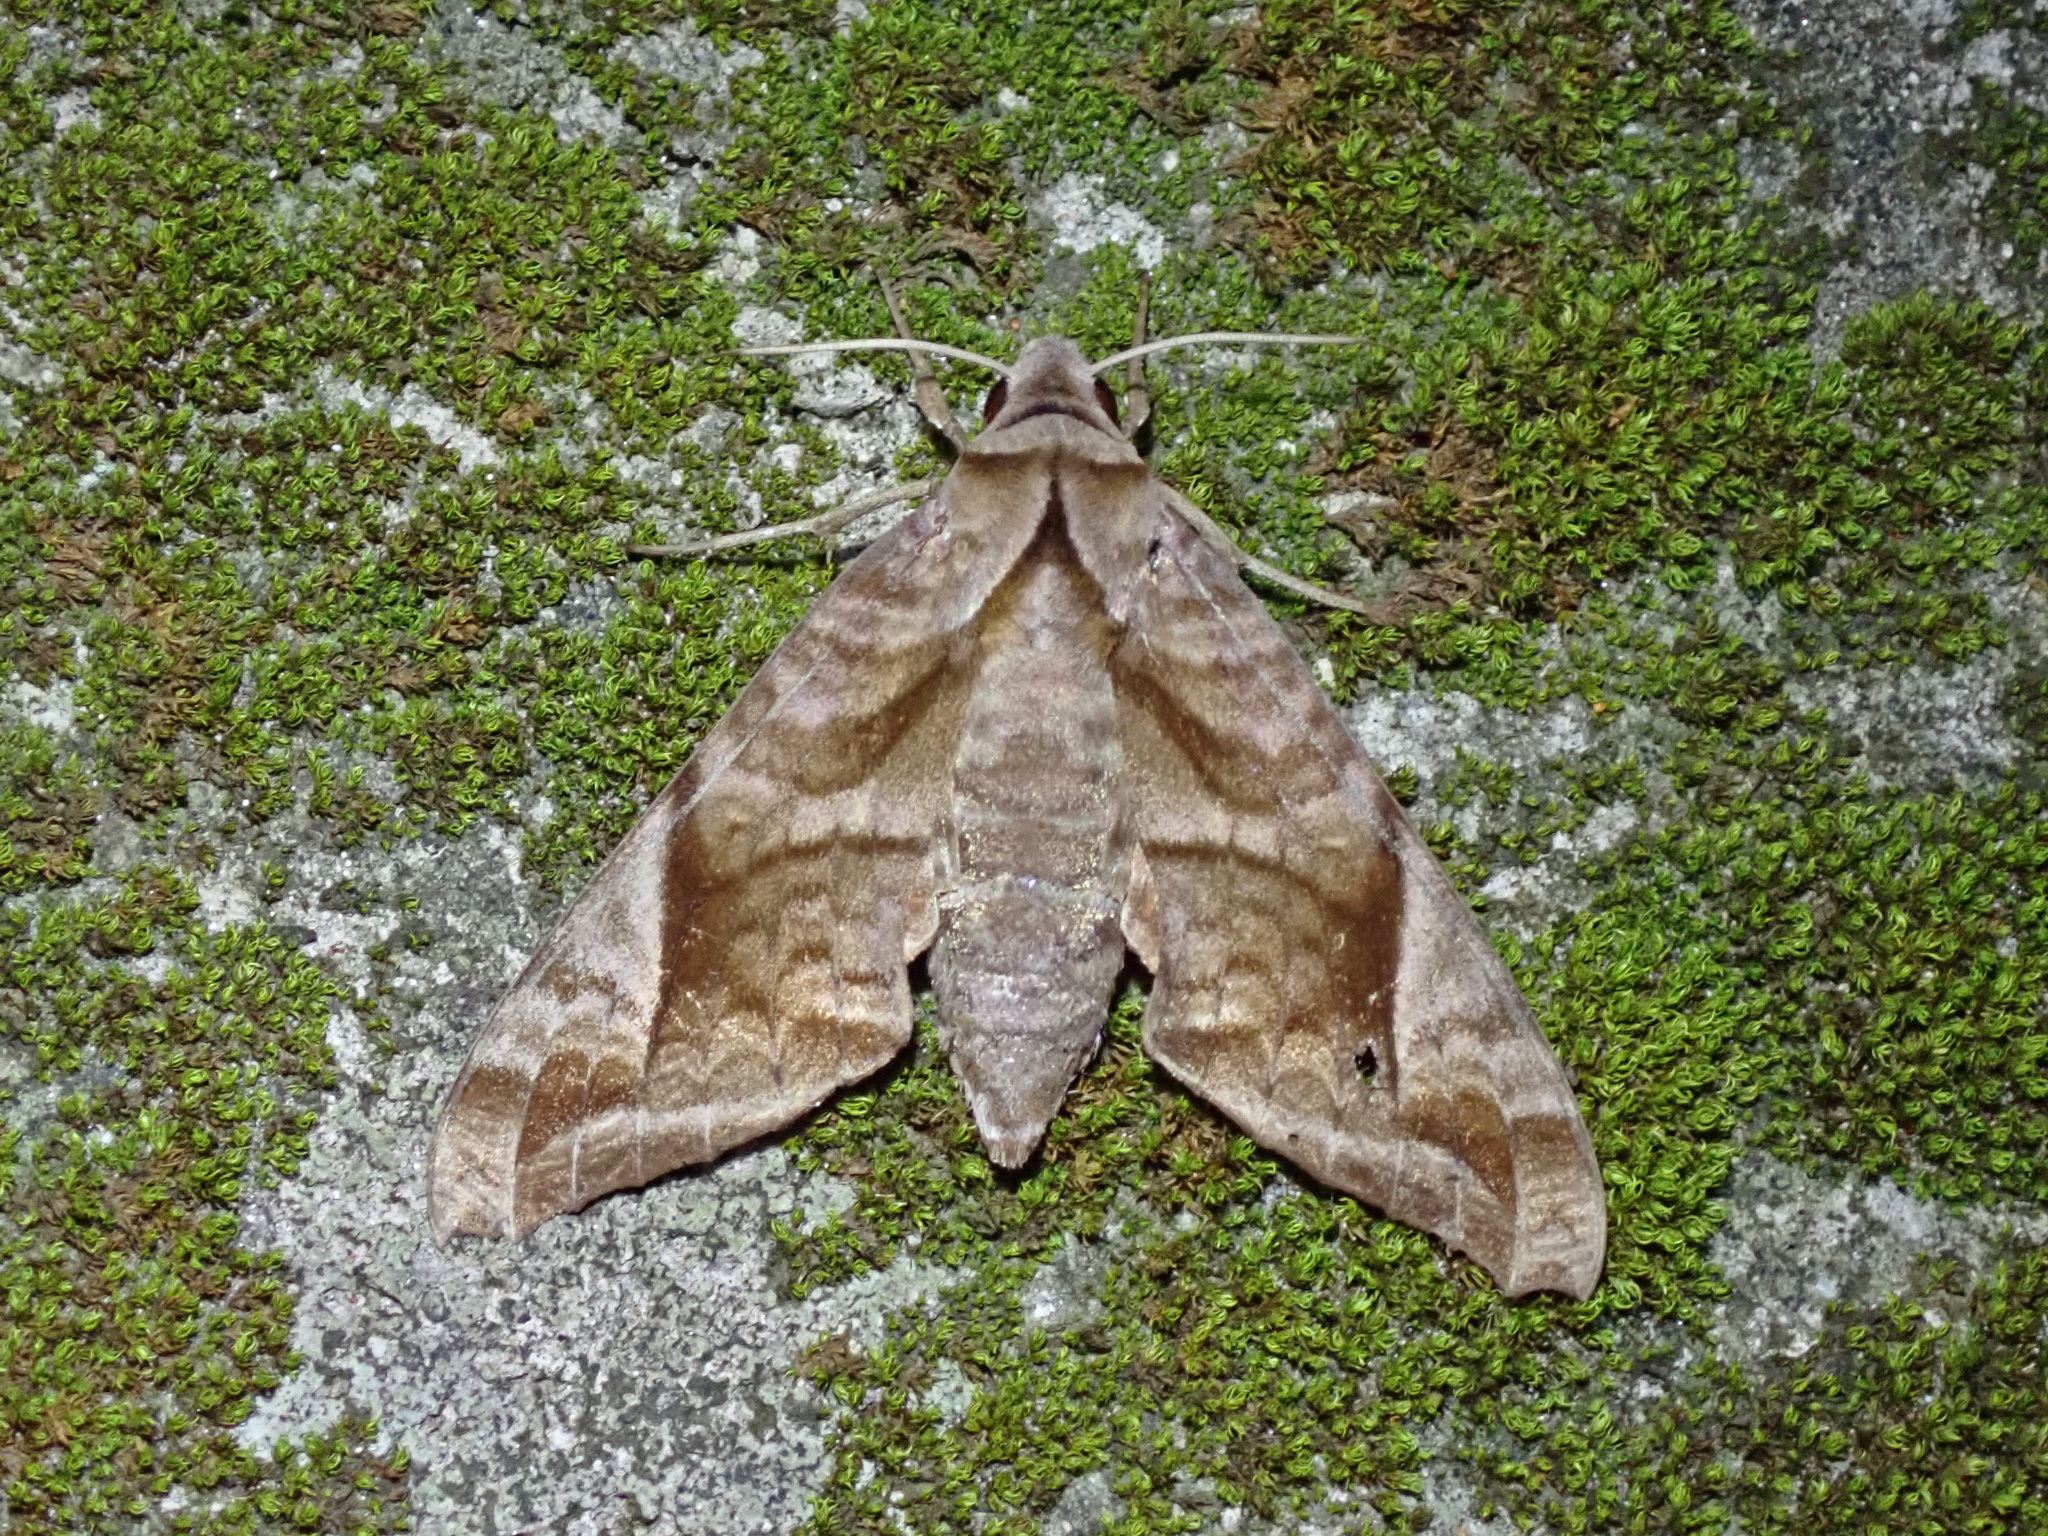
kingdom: Animalia
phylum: Arthropoda
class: Insecta
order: Lepidoptera
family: Sphingidae
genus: Acosmeryx
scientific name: Acosmeryx naga
